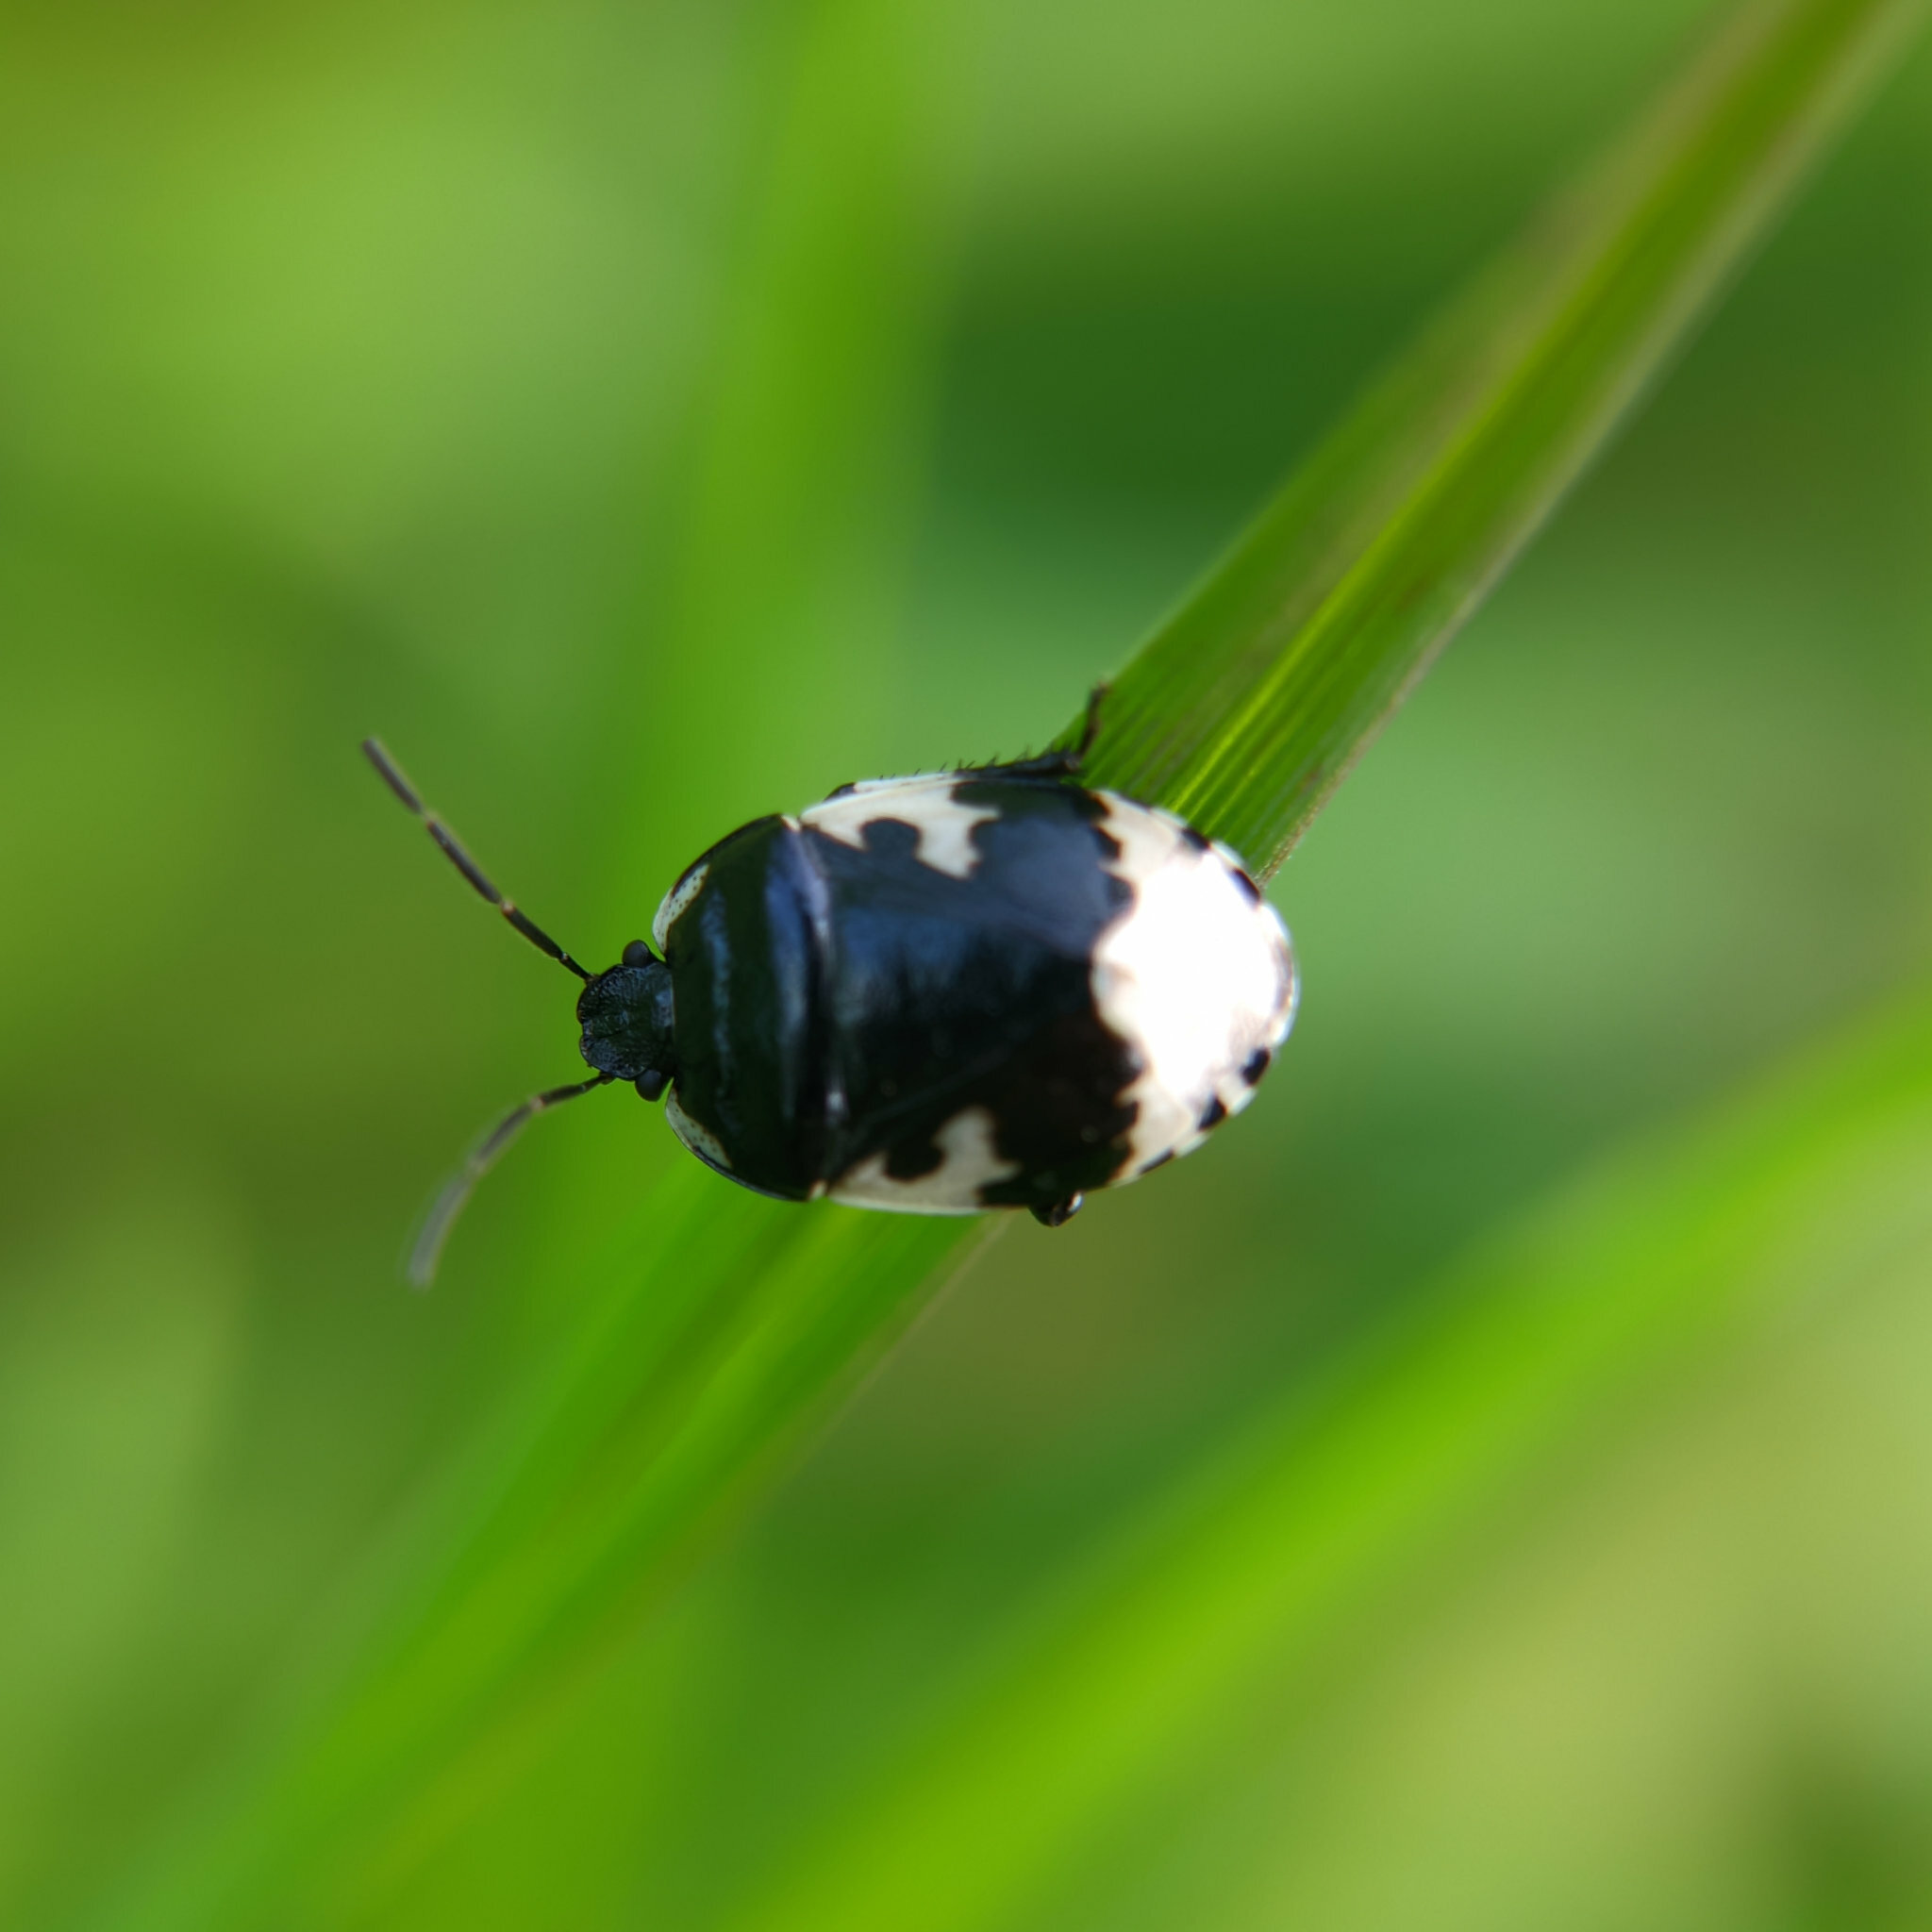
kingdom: Animalia
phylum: Arthropoda
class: Insecta
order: Hemiptera
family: Cydnidae
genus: Tritomegas
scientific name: Tritomegas bicolor
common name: Pied shieldbug
